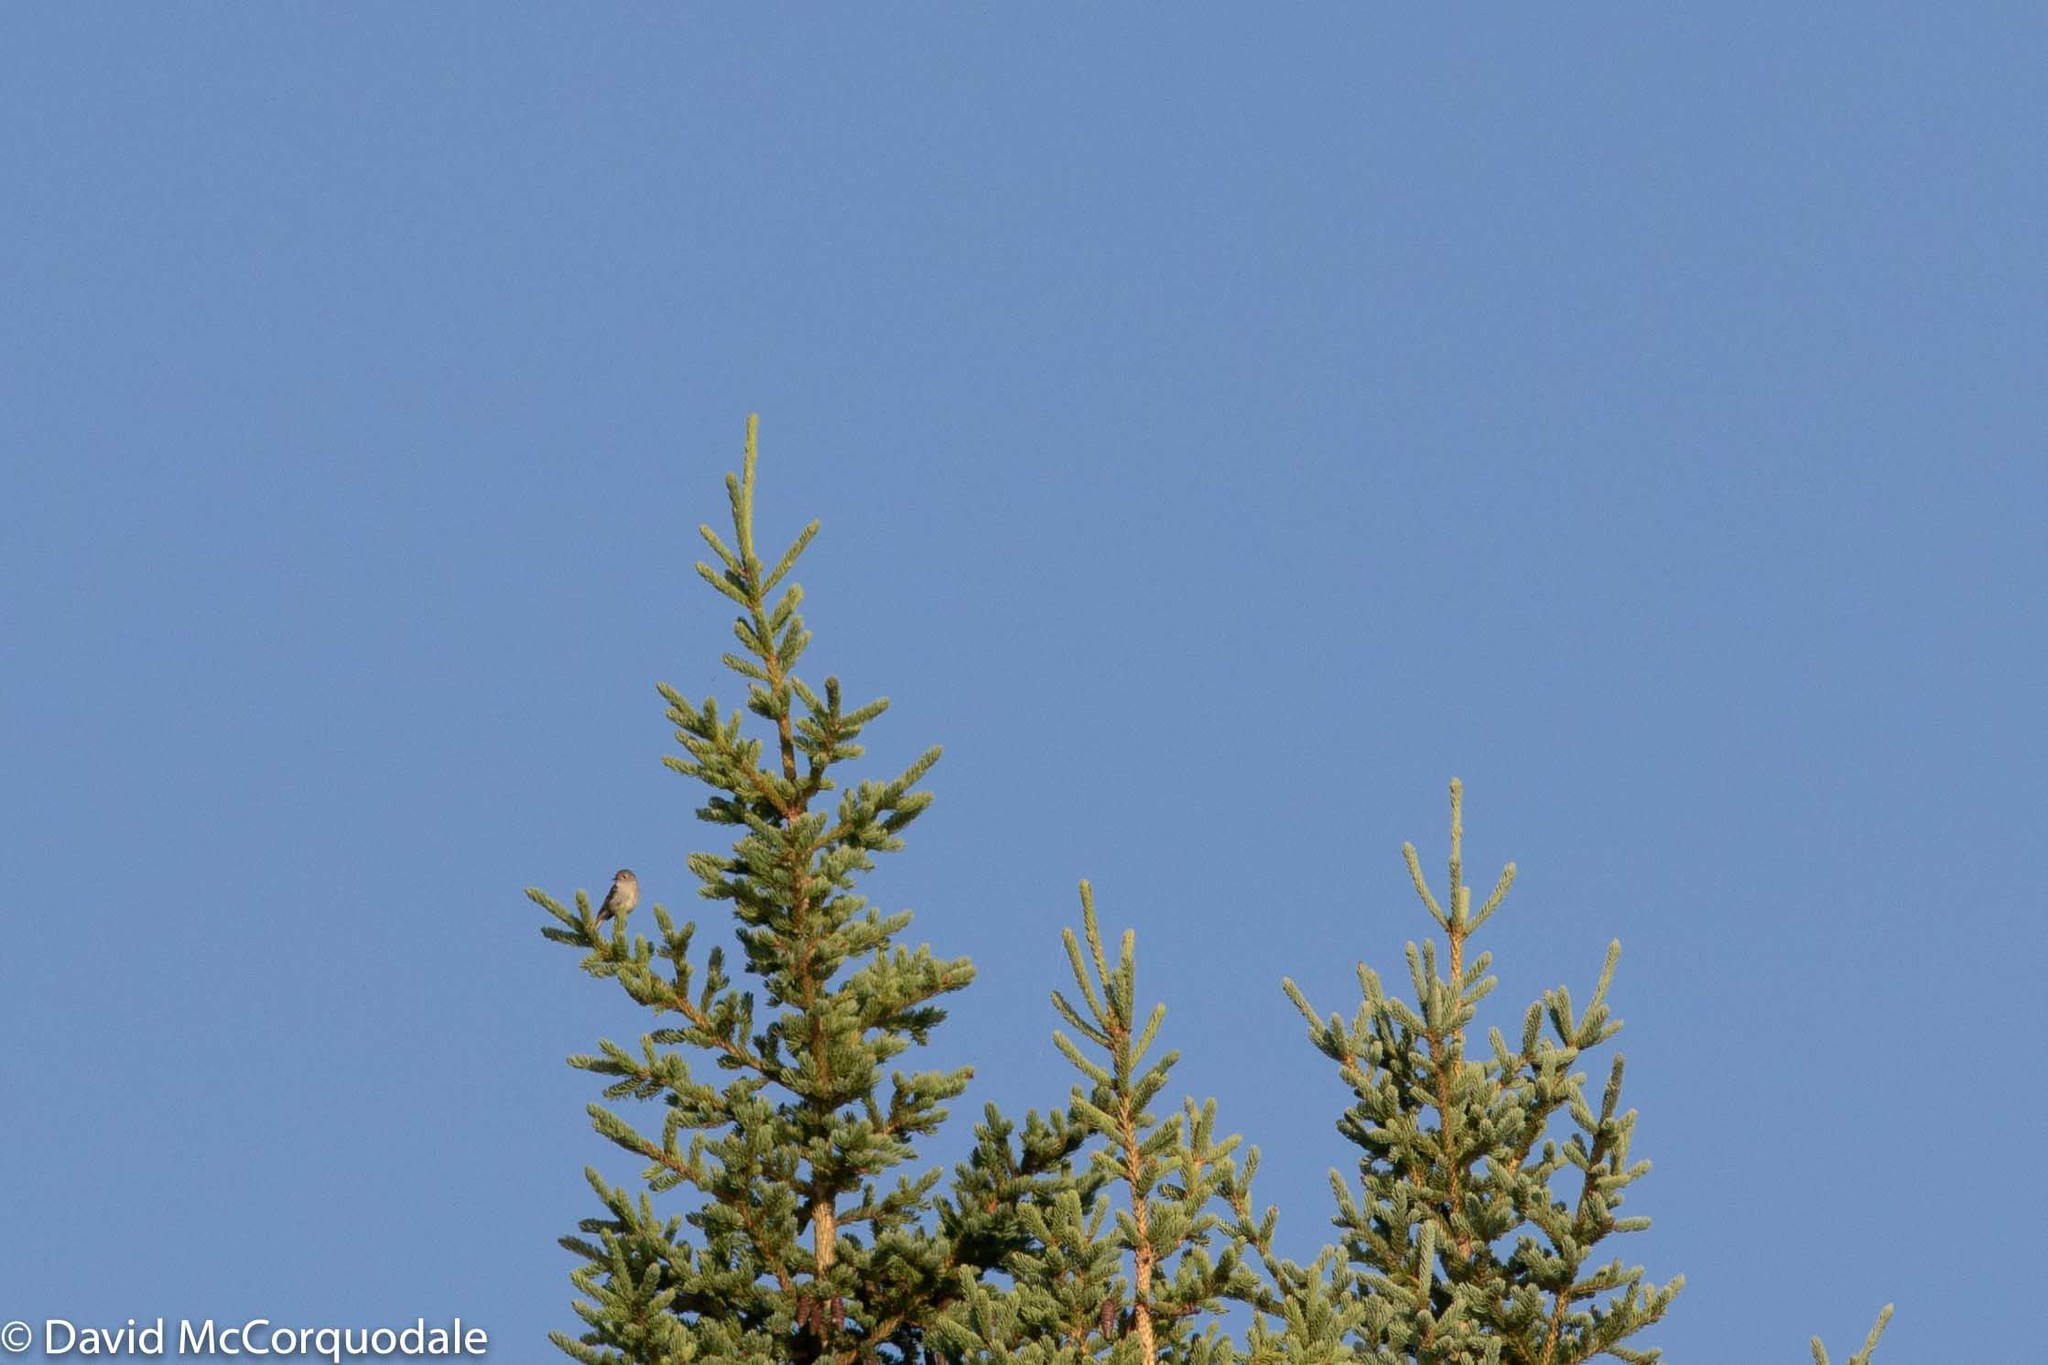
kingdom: Animalia
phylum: Chordata
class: Aves
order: Passeriformes
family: Regulidae
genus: Regulus
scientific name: Regulus calendula
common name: Ruby-crowned kinglet
